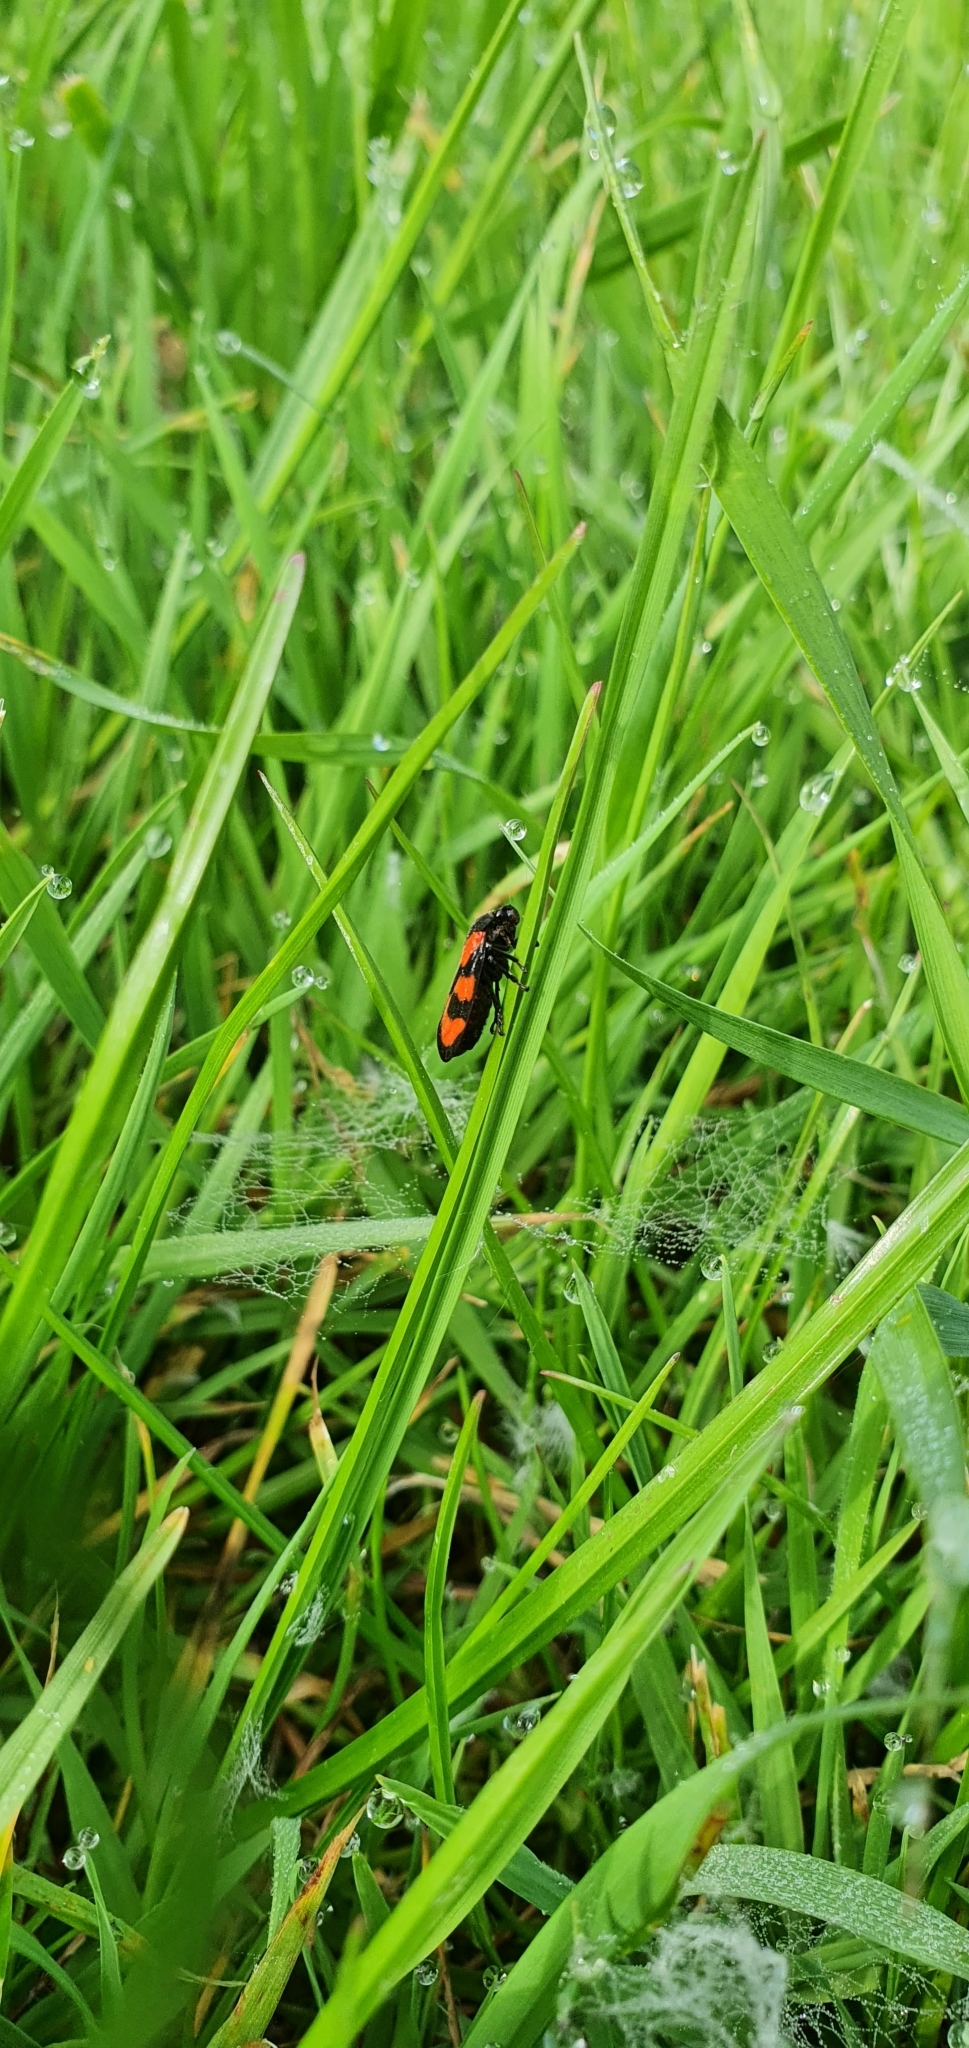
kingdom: Animalia
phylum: Arthropoda
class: Insecta
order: Hemiptera
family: Cercopidae
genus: Cercopis
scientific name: Cercopis vulnerata
